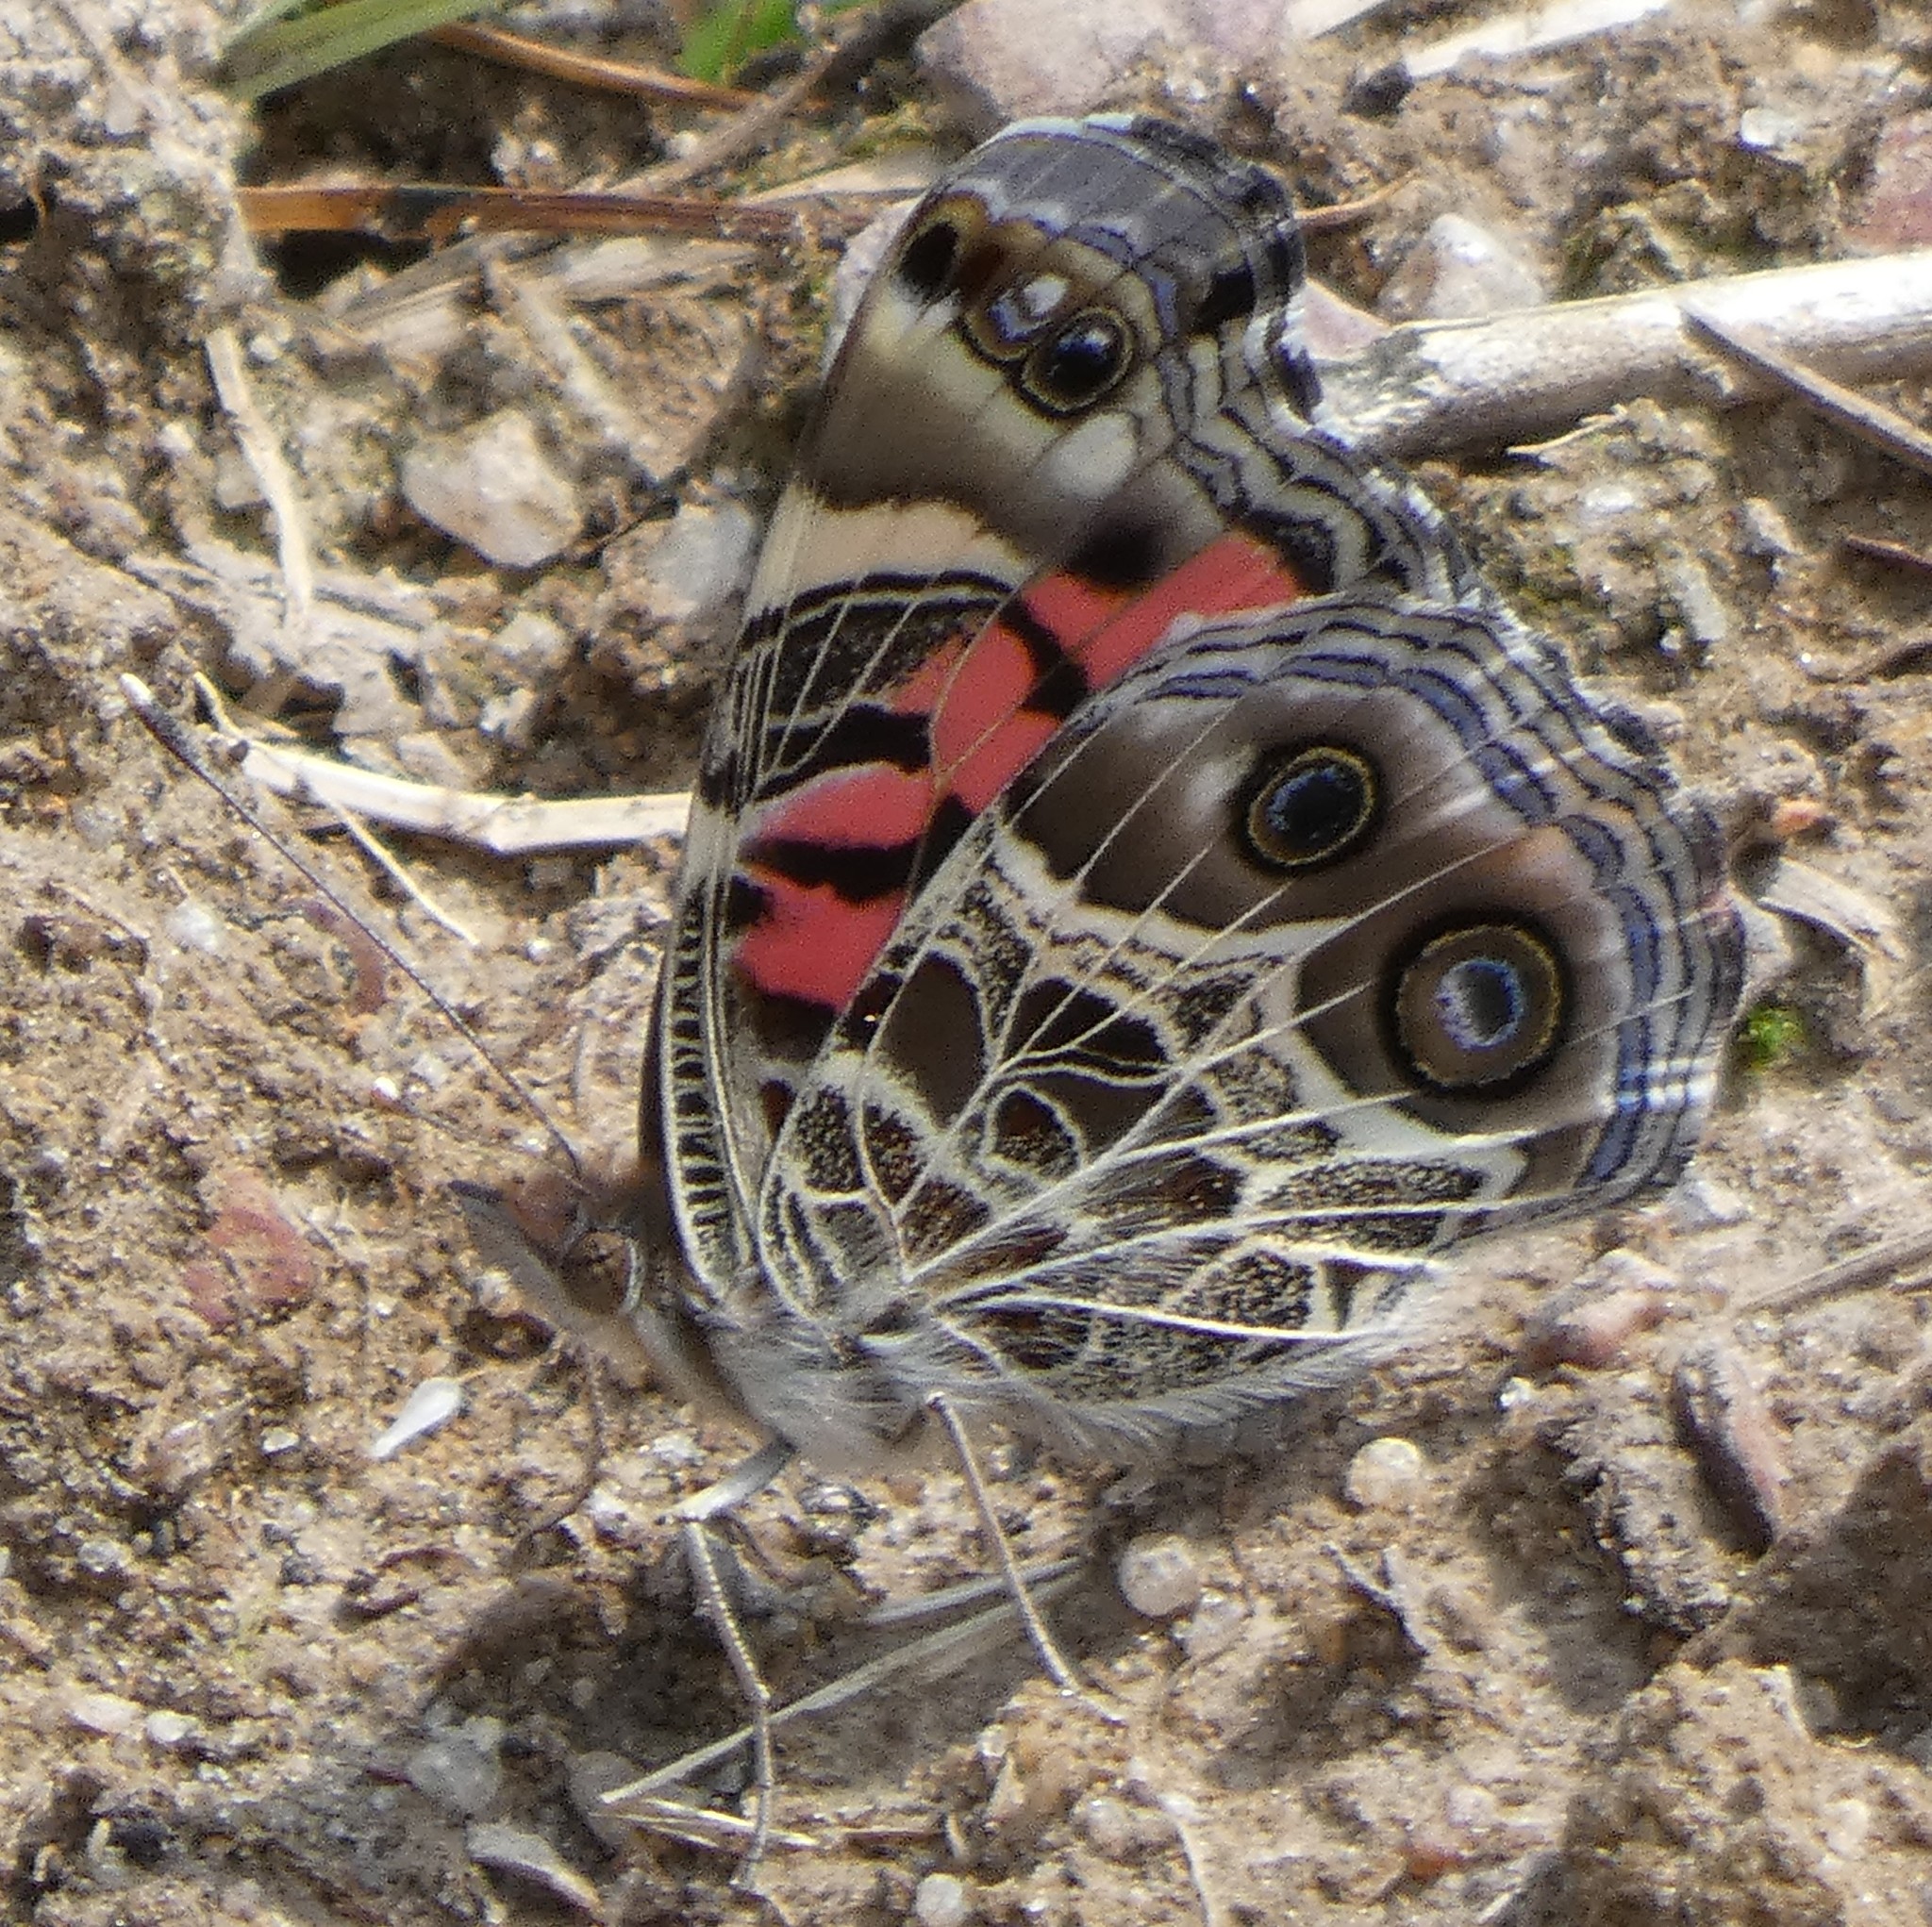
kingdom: Animalia
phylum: Arthropoda
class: Insecta
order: Lepidoptera
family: Nymphalidae
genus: Vanessa
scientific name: Vanessa virginiensis
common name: American lady
